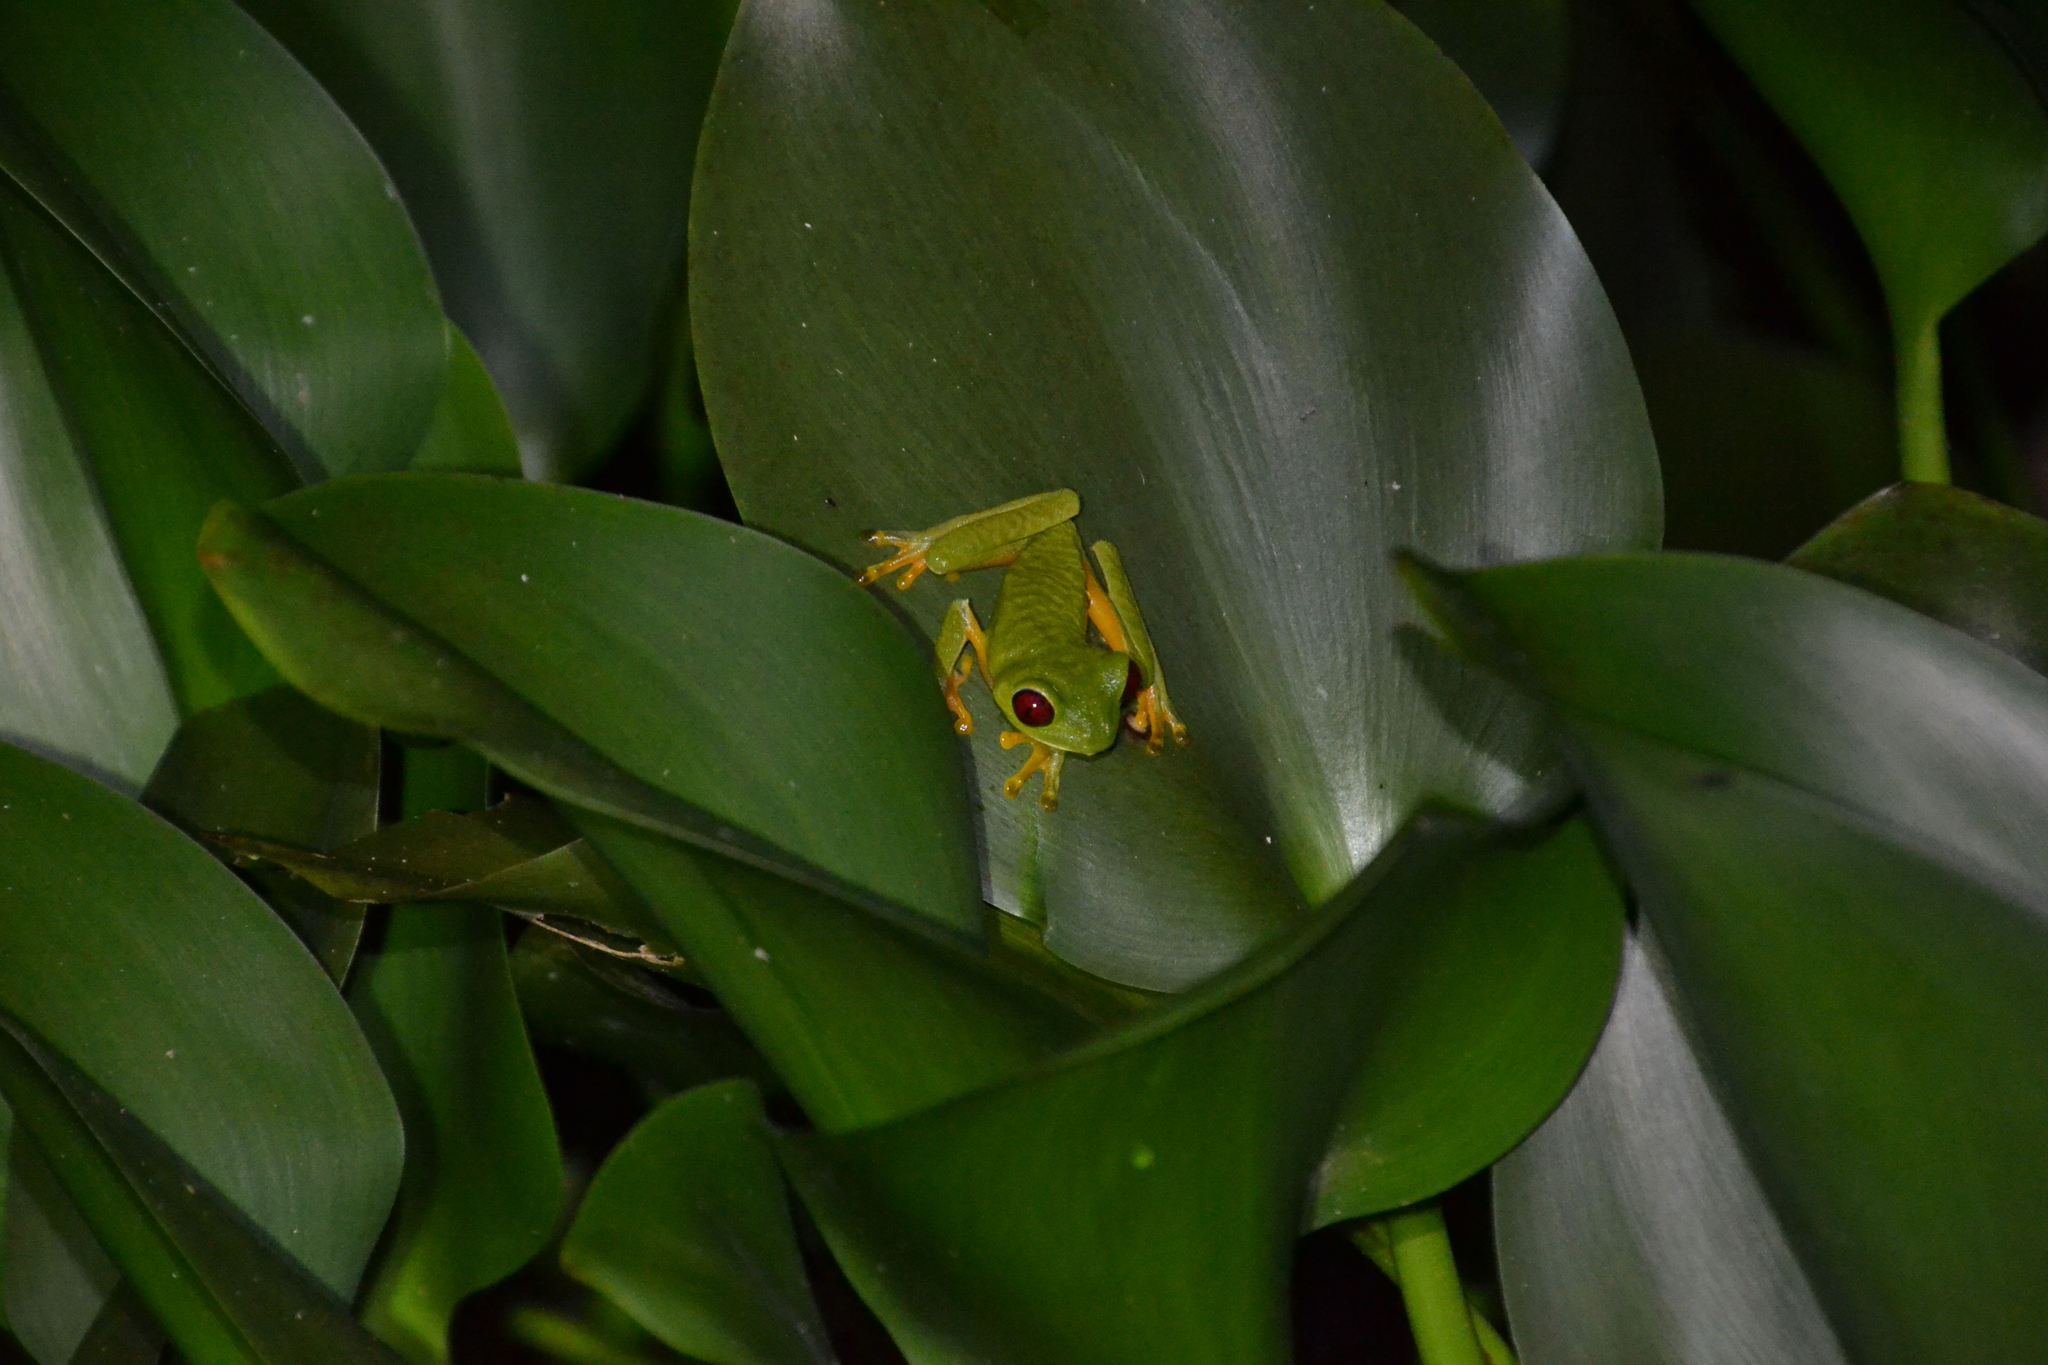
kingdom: Animalia
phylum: Chordata
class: Amphibia
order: Anura
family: Phyllomedusidae
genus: Agalychnis
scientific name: Agalychnis callidryas
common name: Red-eyed treefrog
